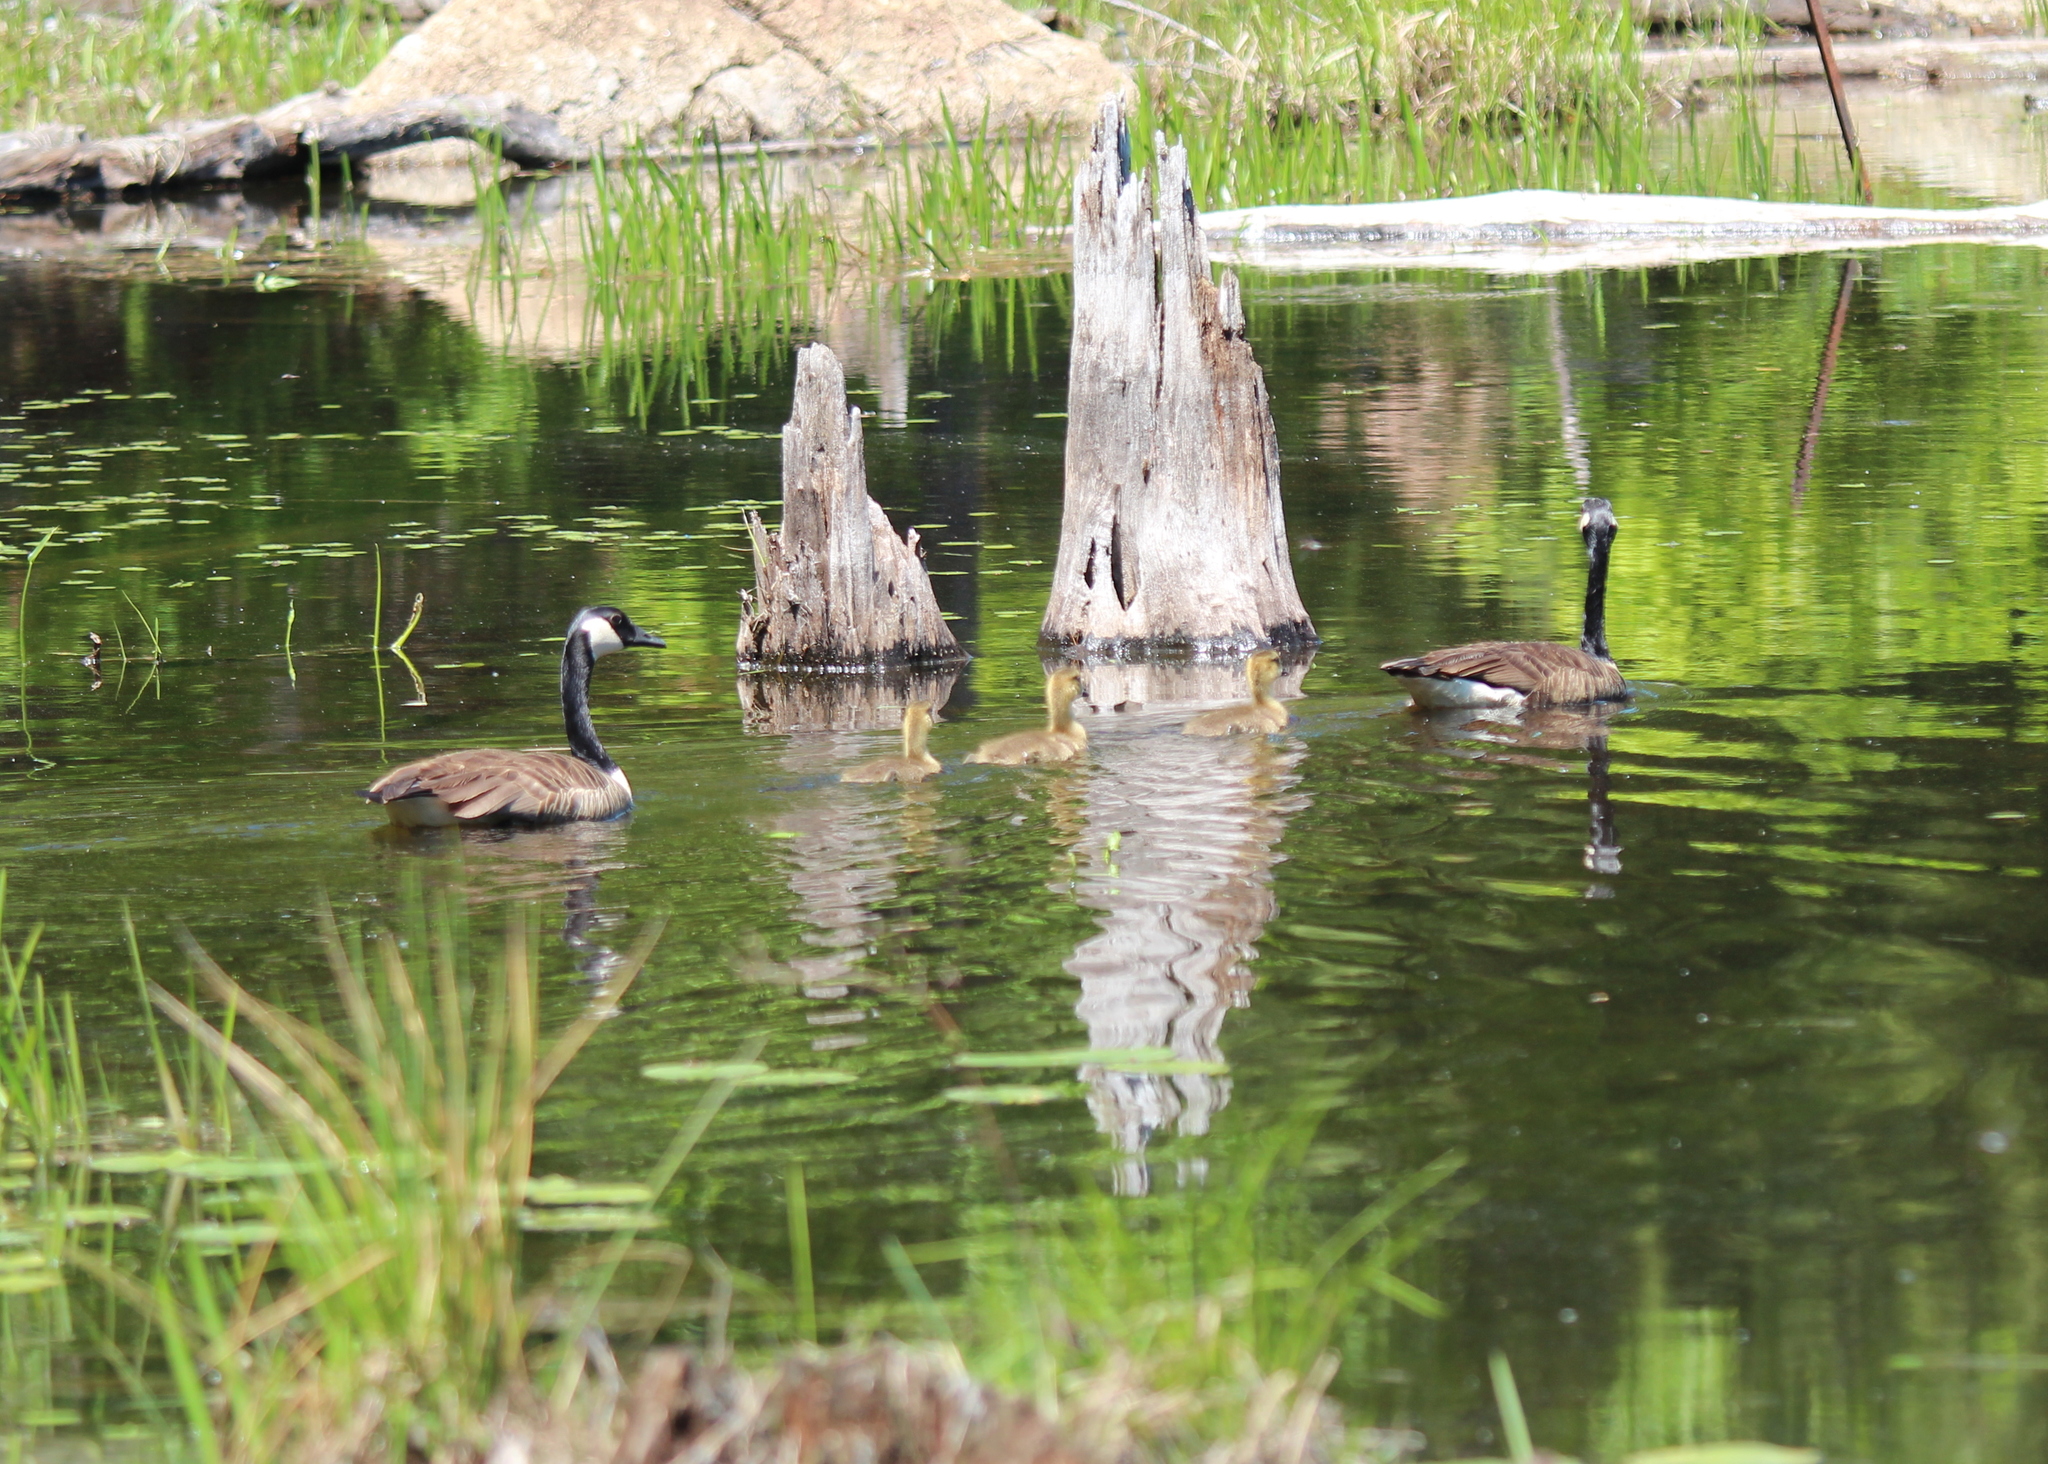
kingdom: Animalia
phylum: Chordata
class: Aves
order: Anseriformes
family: Anatidae
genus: Branta
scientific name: Branta canadensis
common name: Canada goose
